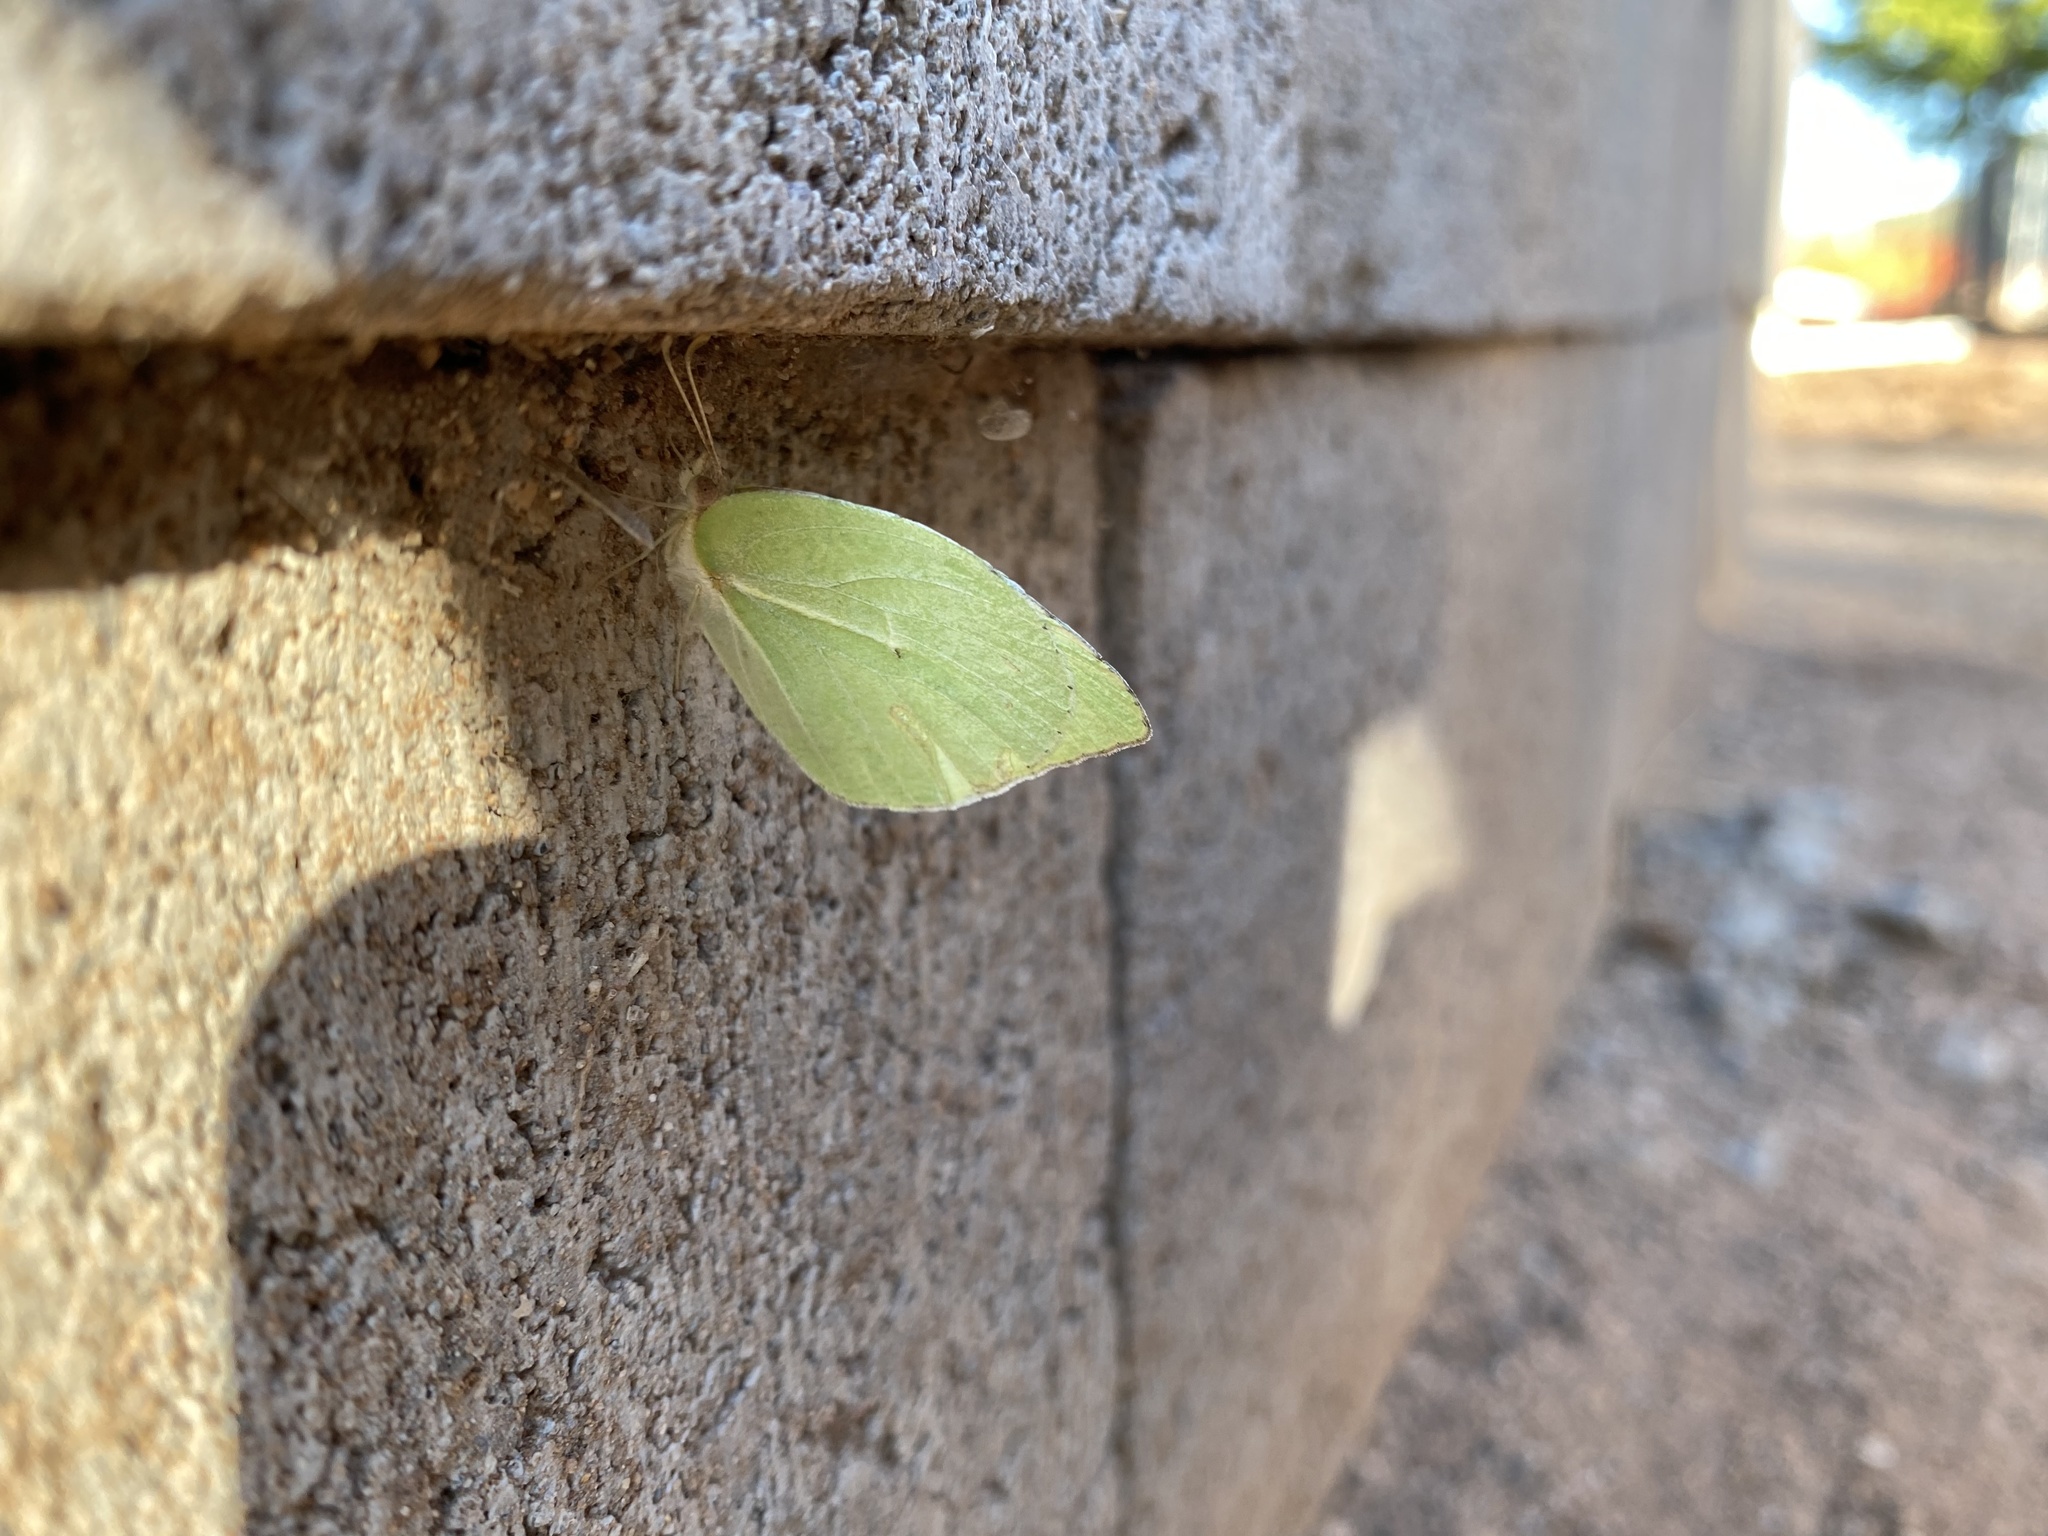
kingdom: Animalia
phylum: Arthropoda
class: Insecta
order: Lepidoptera
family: Pieridae
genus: Kricogonia
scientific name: Kricogonia lyside
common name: Guayacan sulphur,
